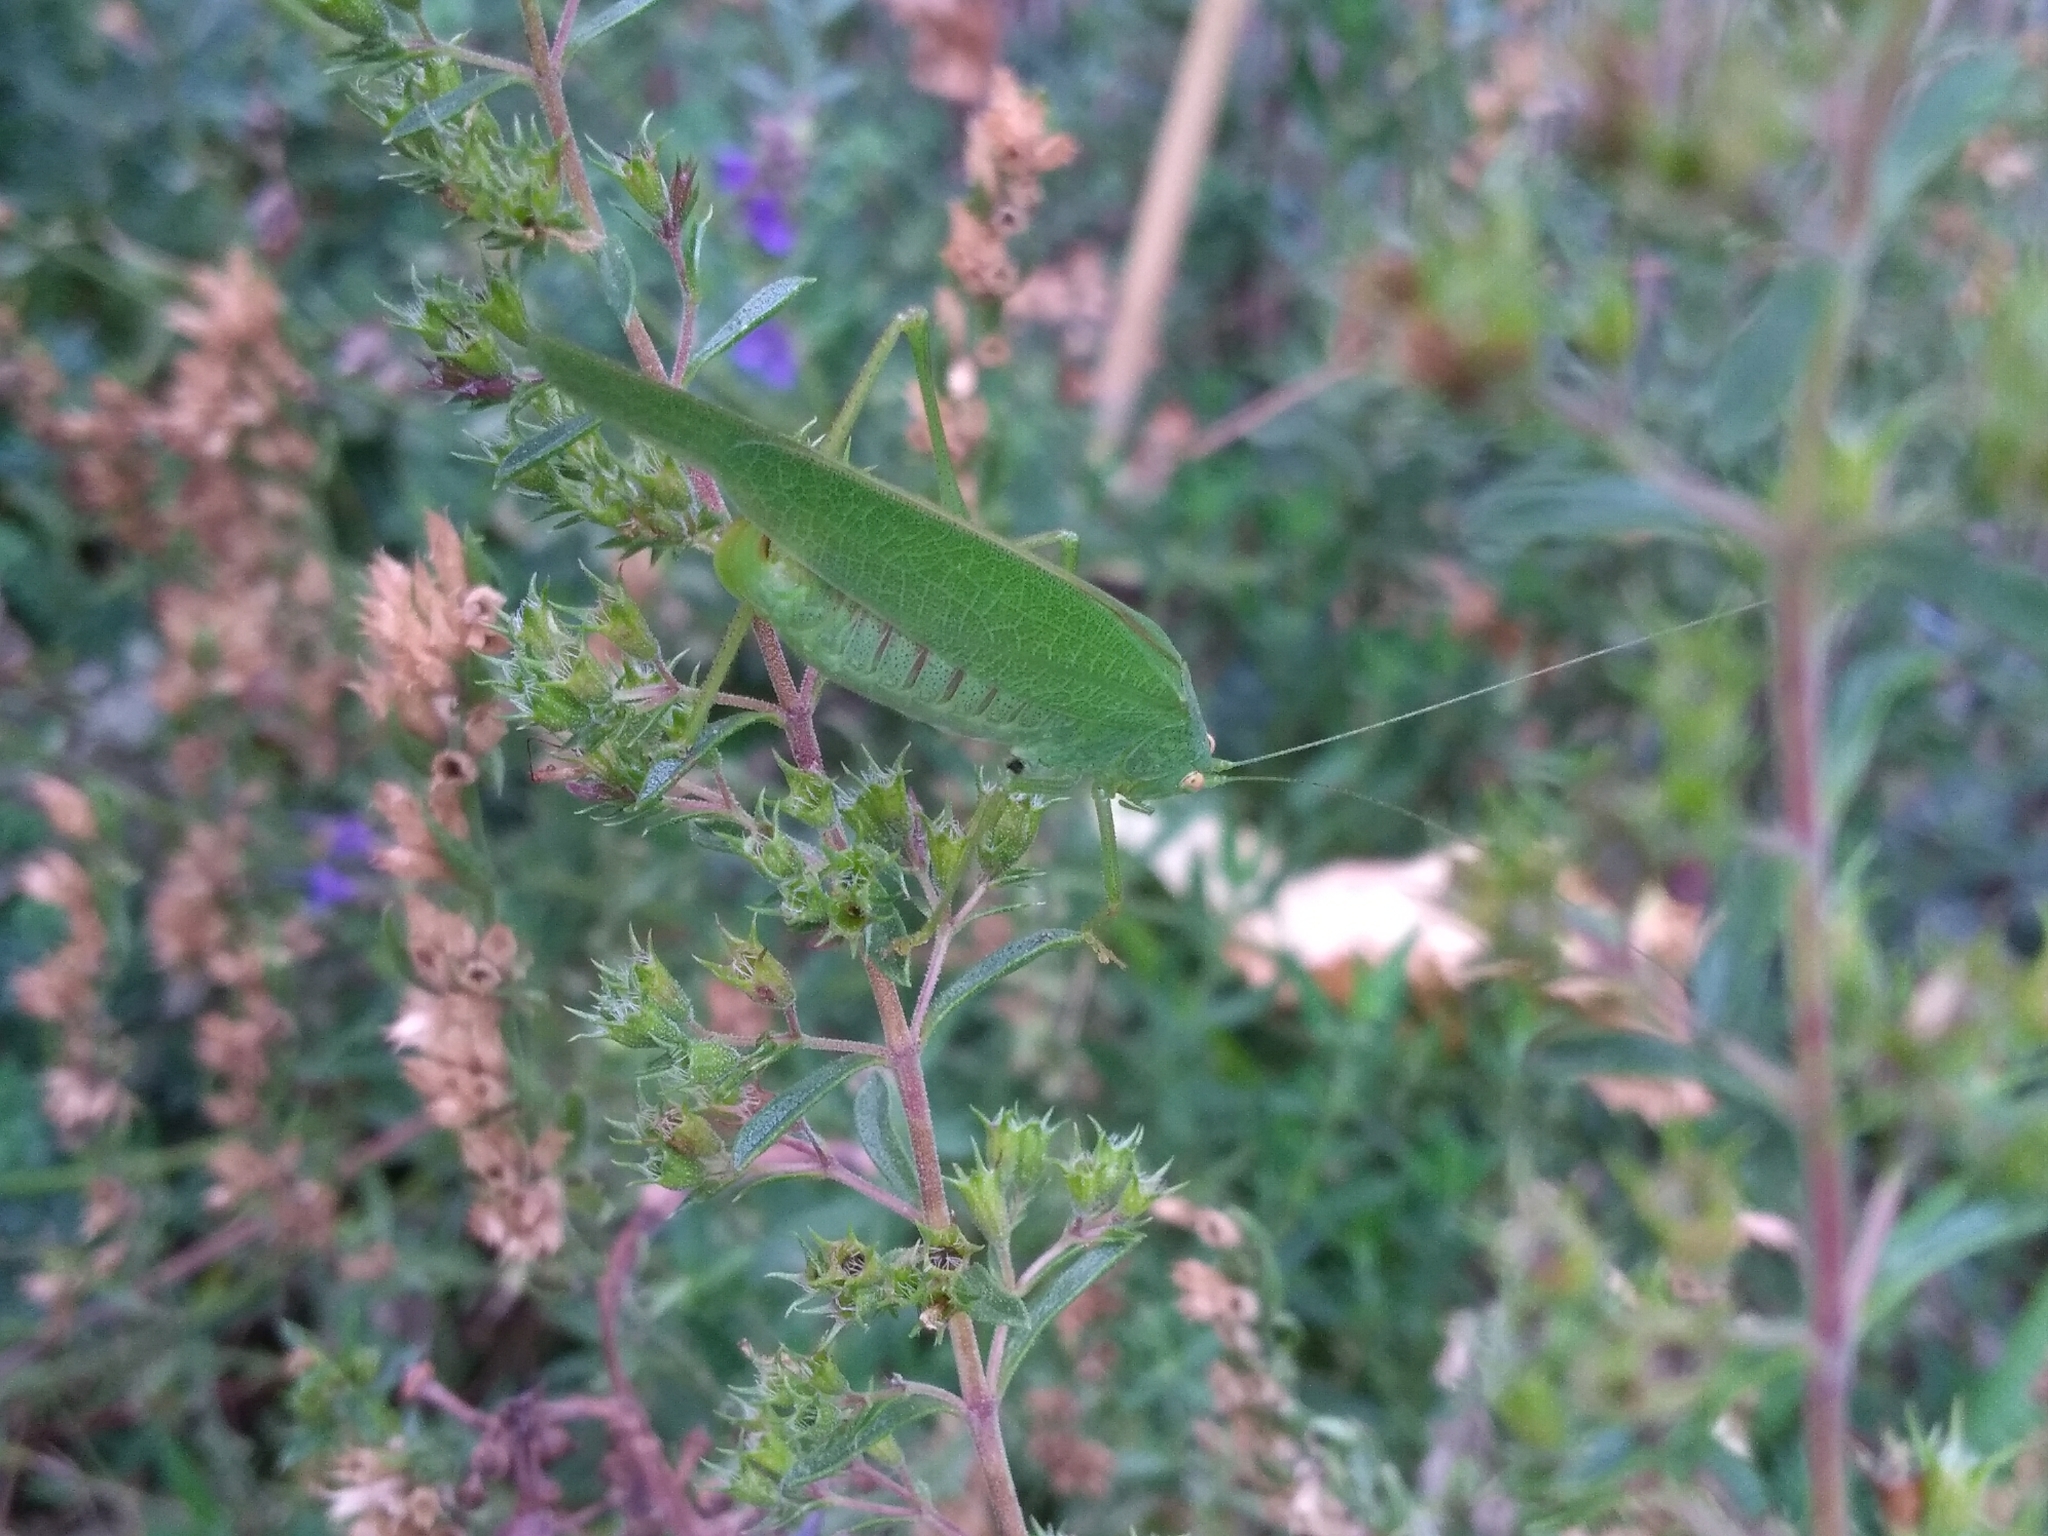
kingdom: Animalia
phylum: Arthropoda
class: Insecta
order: Orthoptera
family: Tettigoniidae
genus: Phaneroptera
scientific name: Phaneroptera nana
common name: Southern sickle bush-cricket
